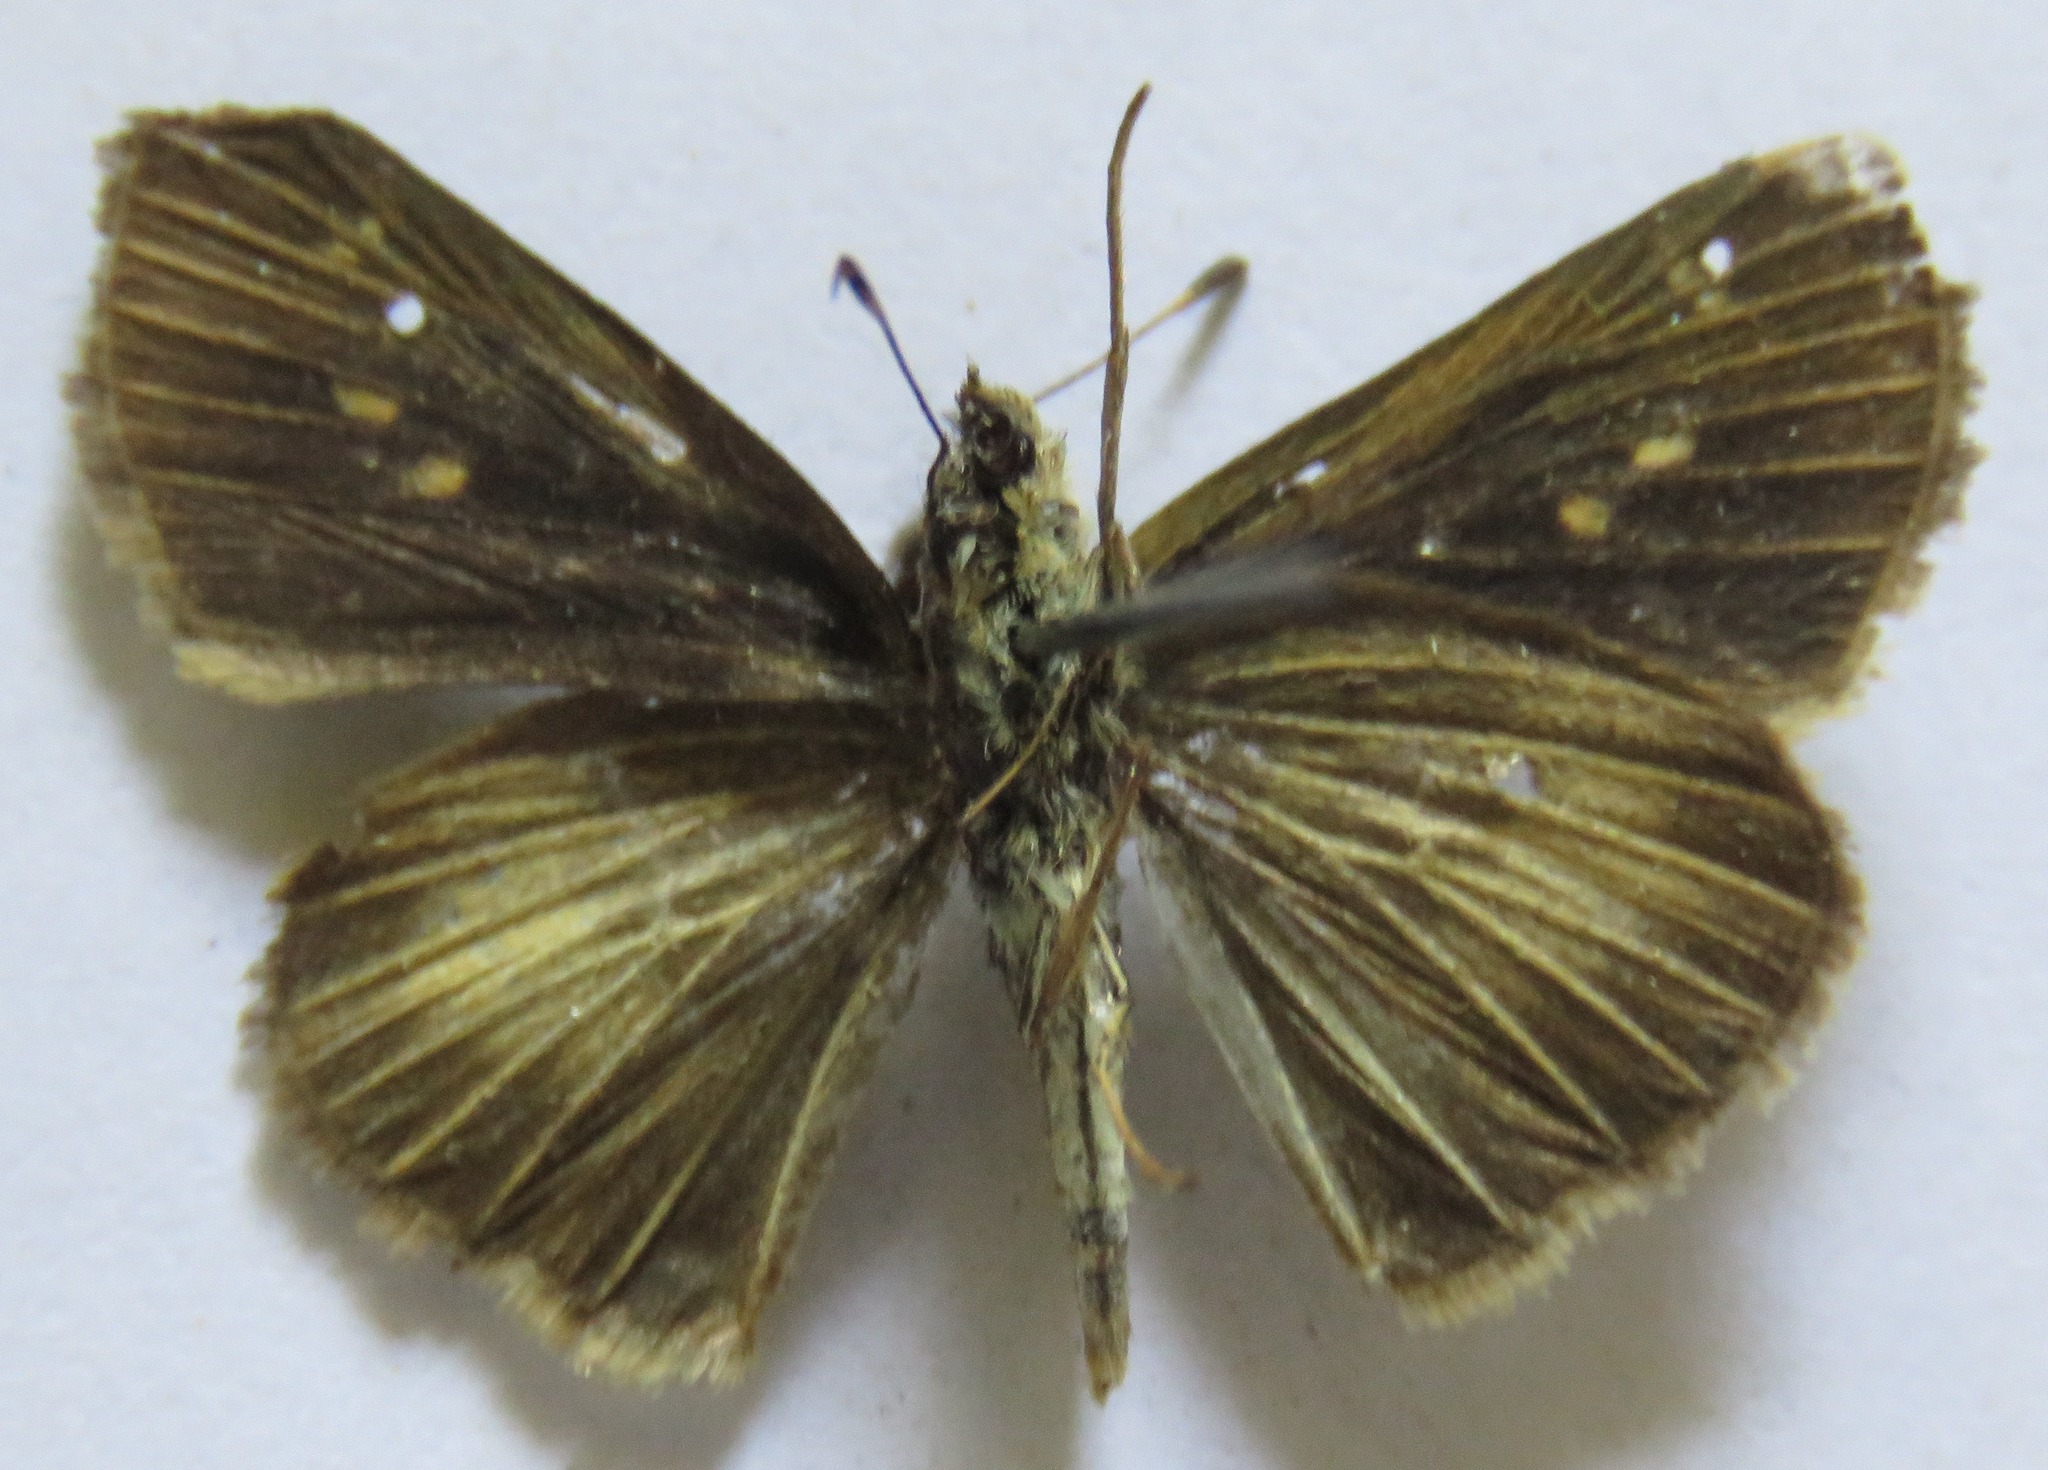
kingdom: Animalia
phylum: Arthropoda
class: Insecta
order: Lepidoptera
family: Hesperiidae
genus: Vehilius
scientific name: Vehilius stictomenes
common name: Pasture skipper
